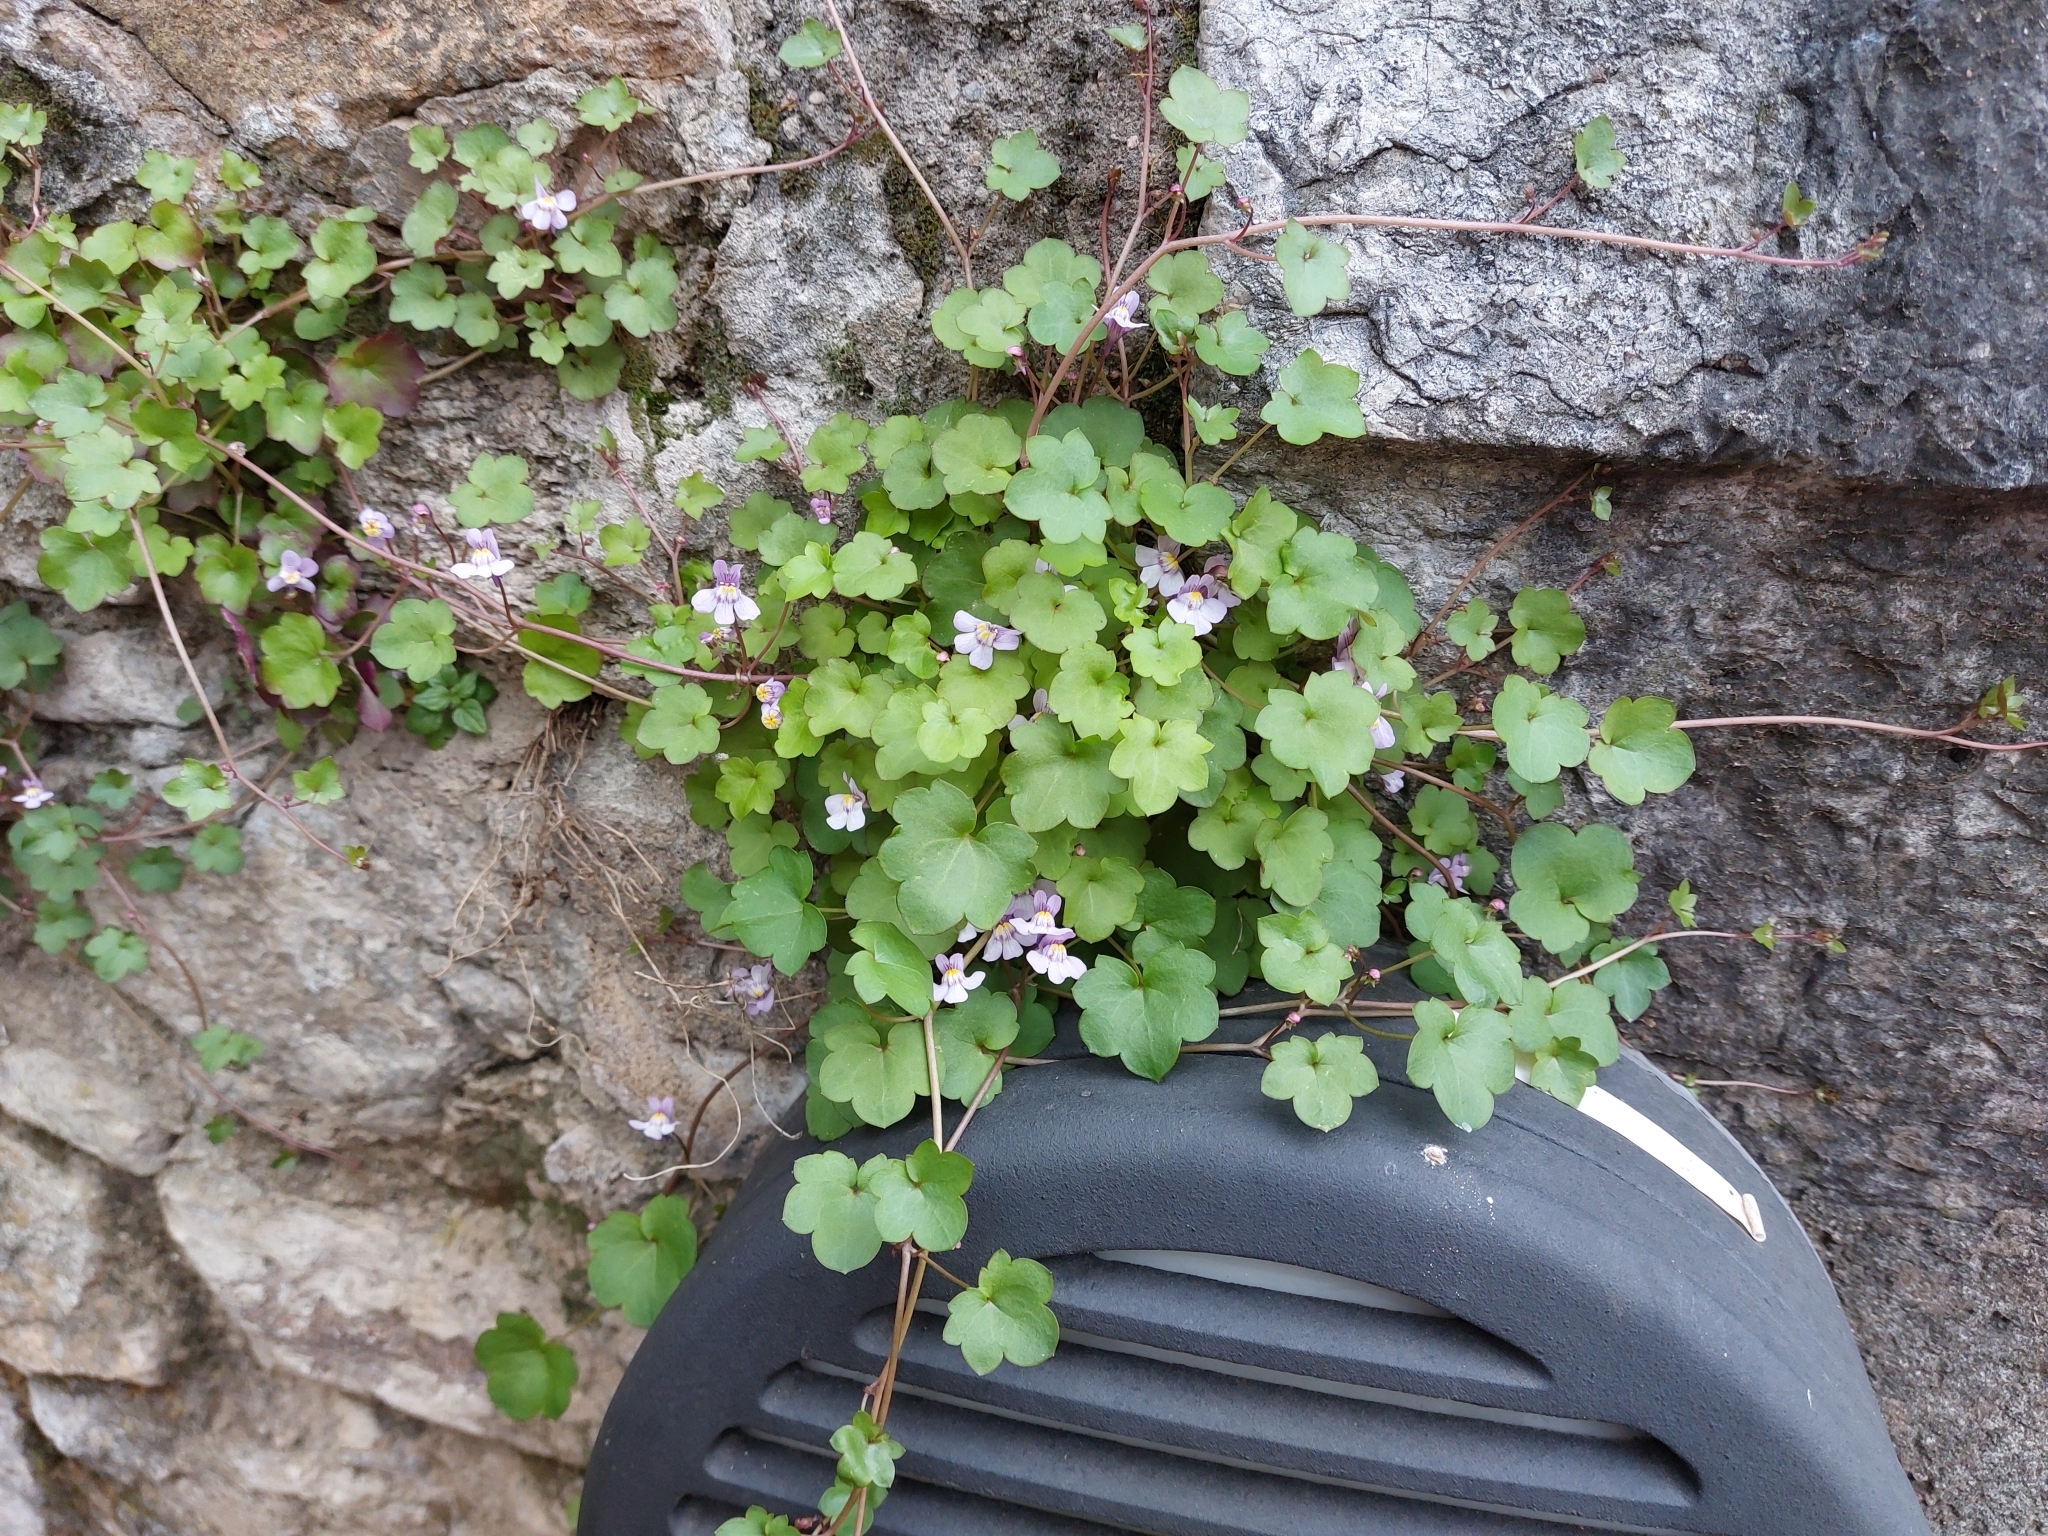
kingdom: Plantae
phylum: Tracheophyta
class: Magnoliopsida
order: Lamiales
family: Plantaginaceae
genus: Cymbalaria
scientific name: Cymbalaria muralis
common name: Ivy-leaved toadflax
